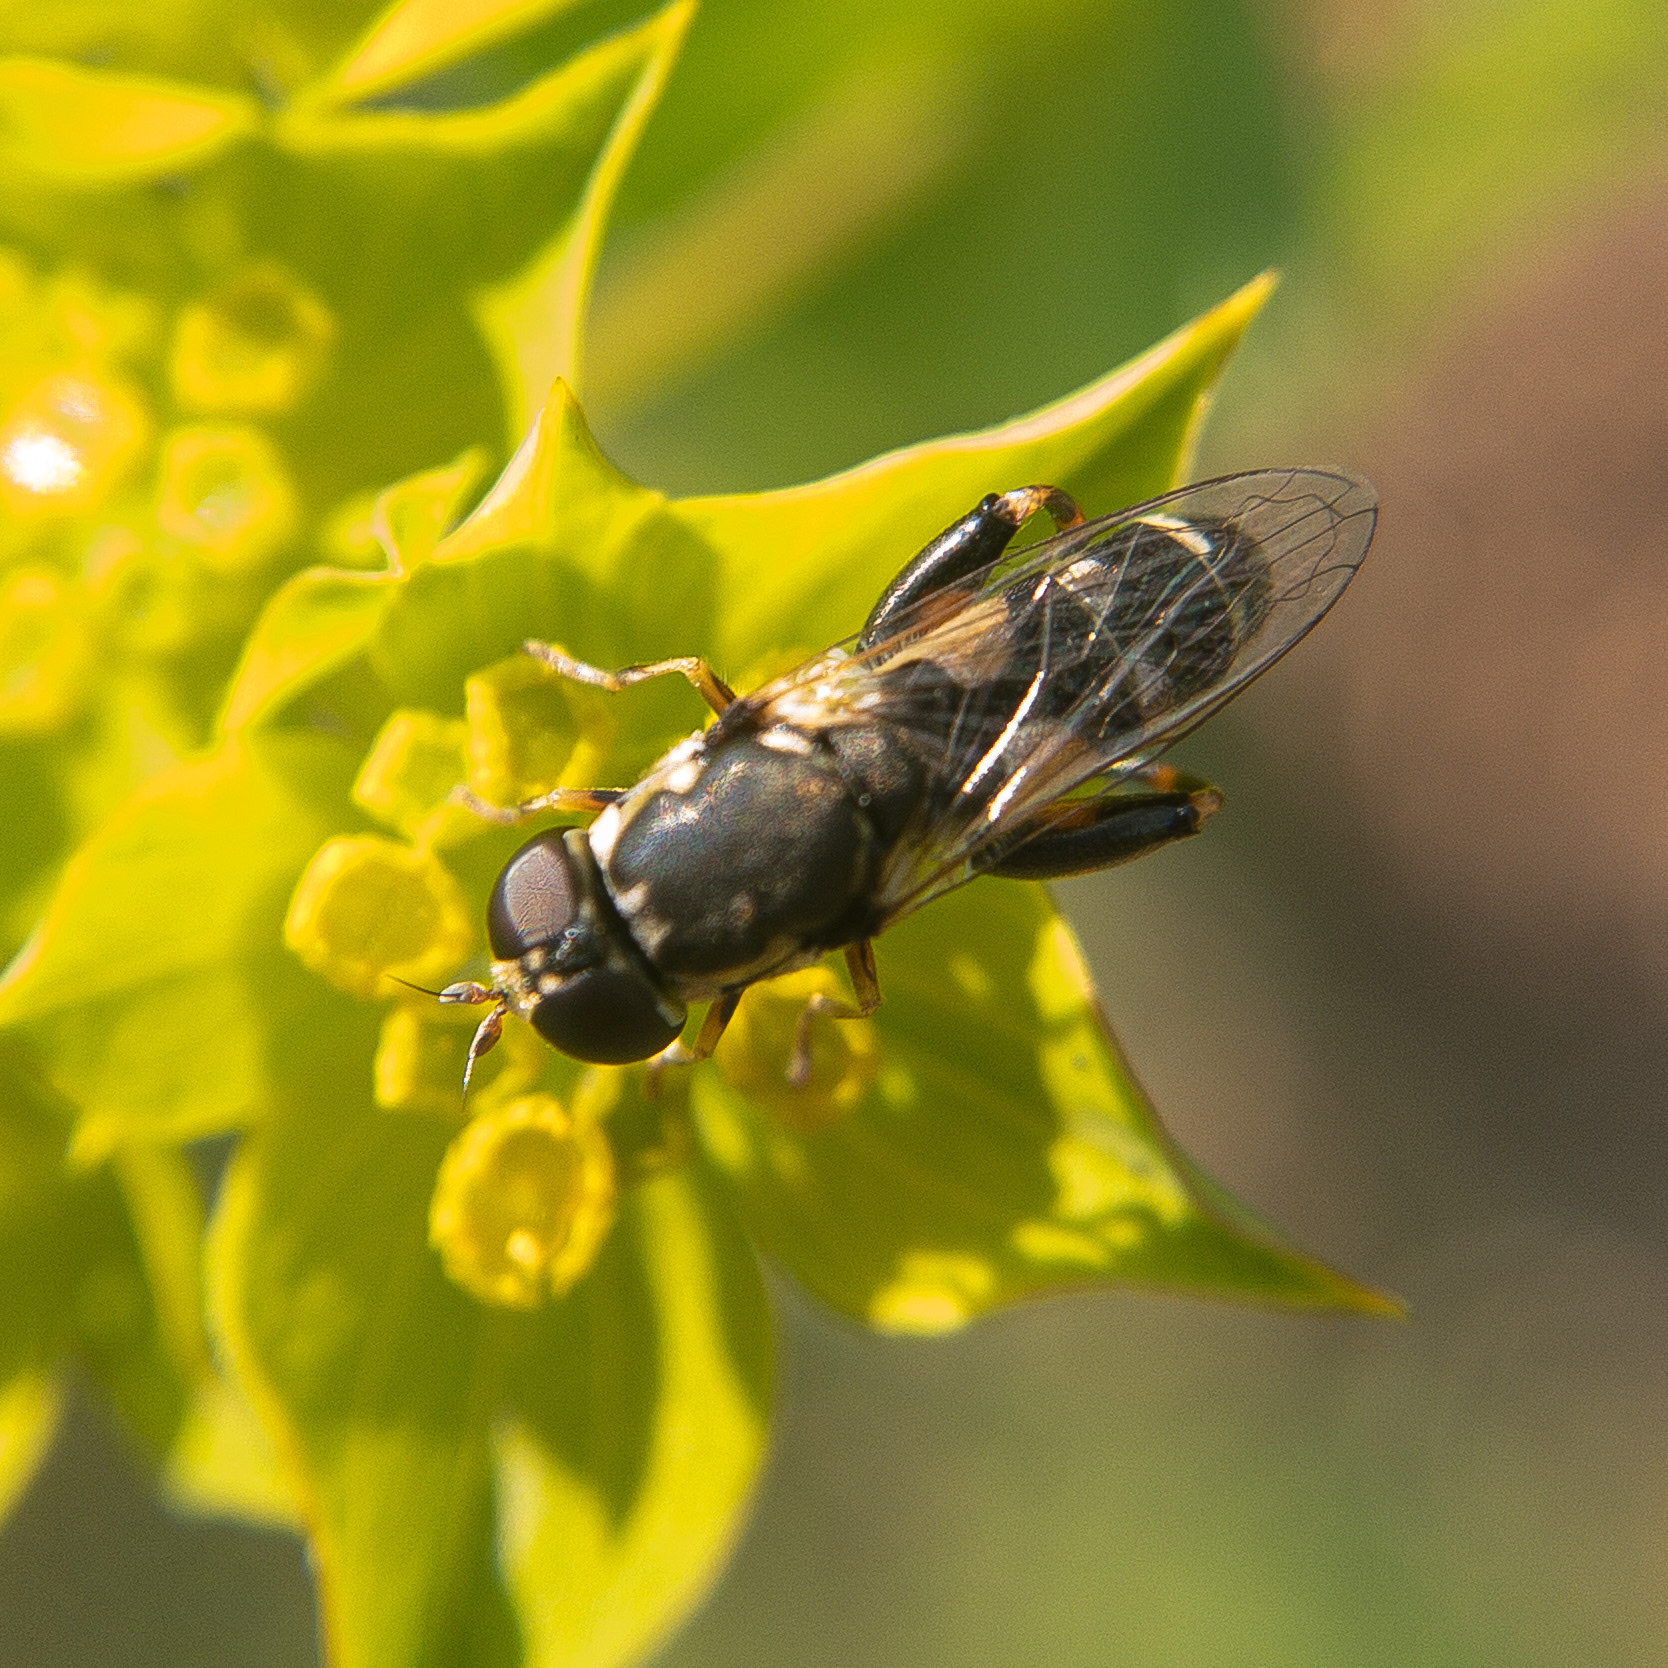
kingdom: Animalia
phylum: Arthropoda
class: Insecta
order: Diptera
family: Syrphidae
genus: Syritta
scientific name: Syritta pipiens
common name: Hover fly
